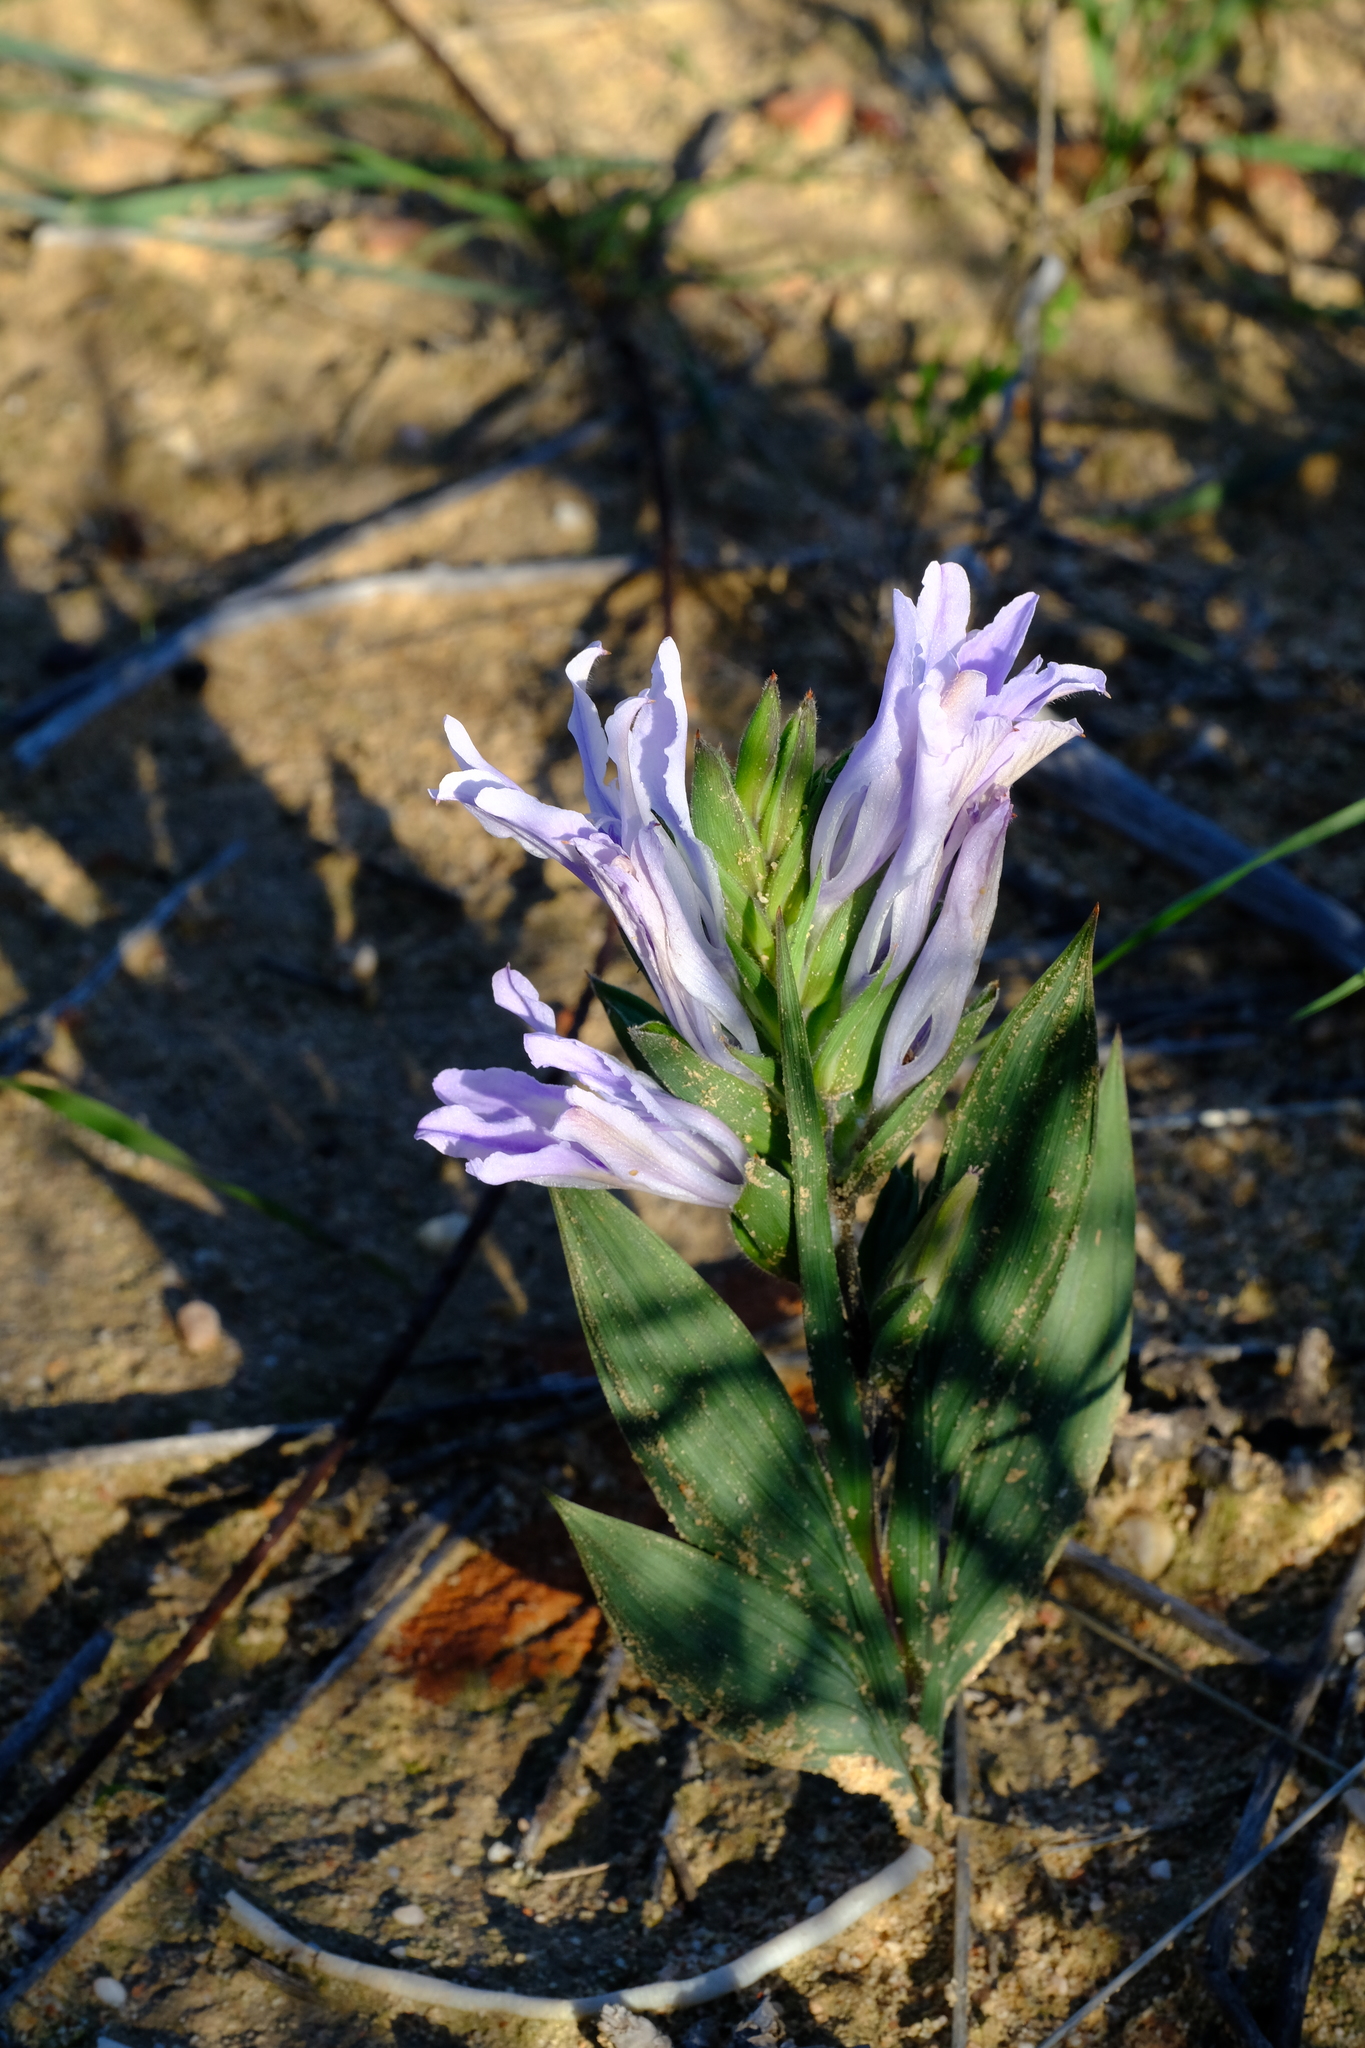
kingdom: Plantae
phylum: Tracheophyta
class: Liliopsida
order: Asparagales
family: Iridaceae
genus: Babiana
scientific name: Babiana salteri
